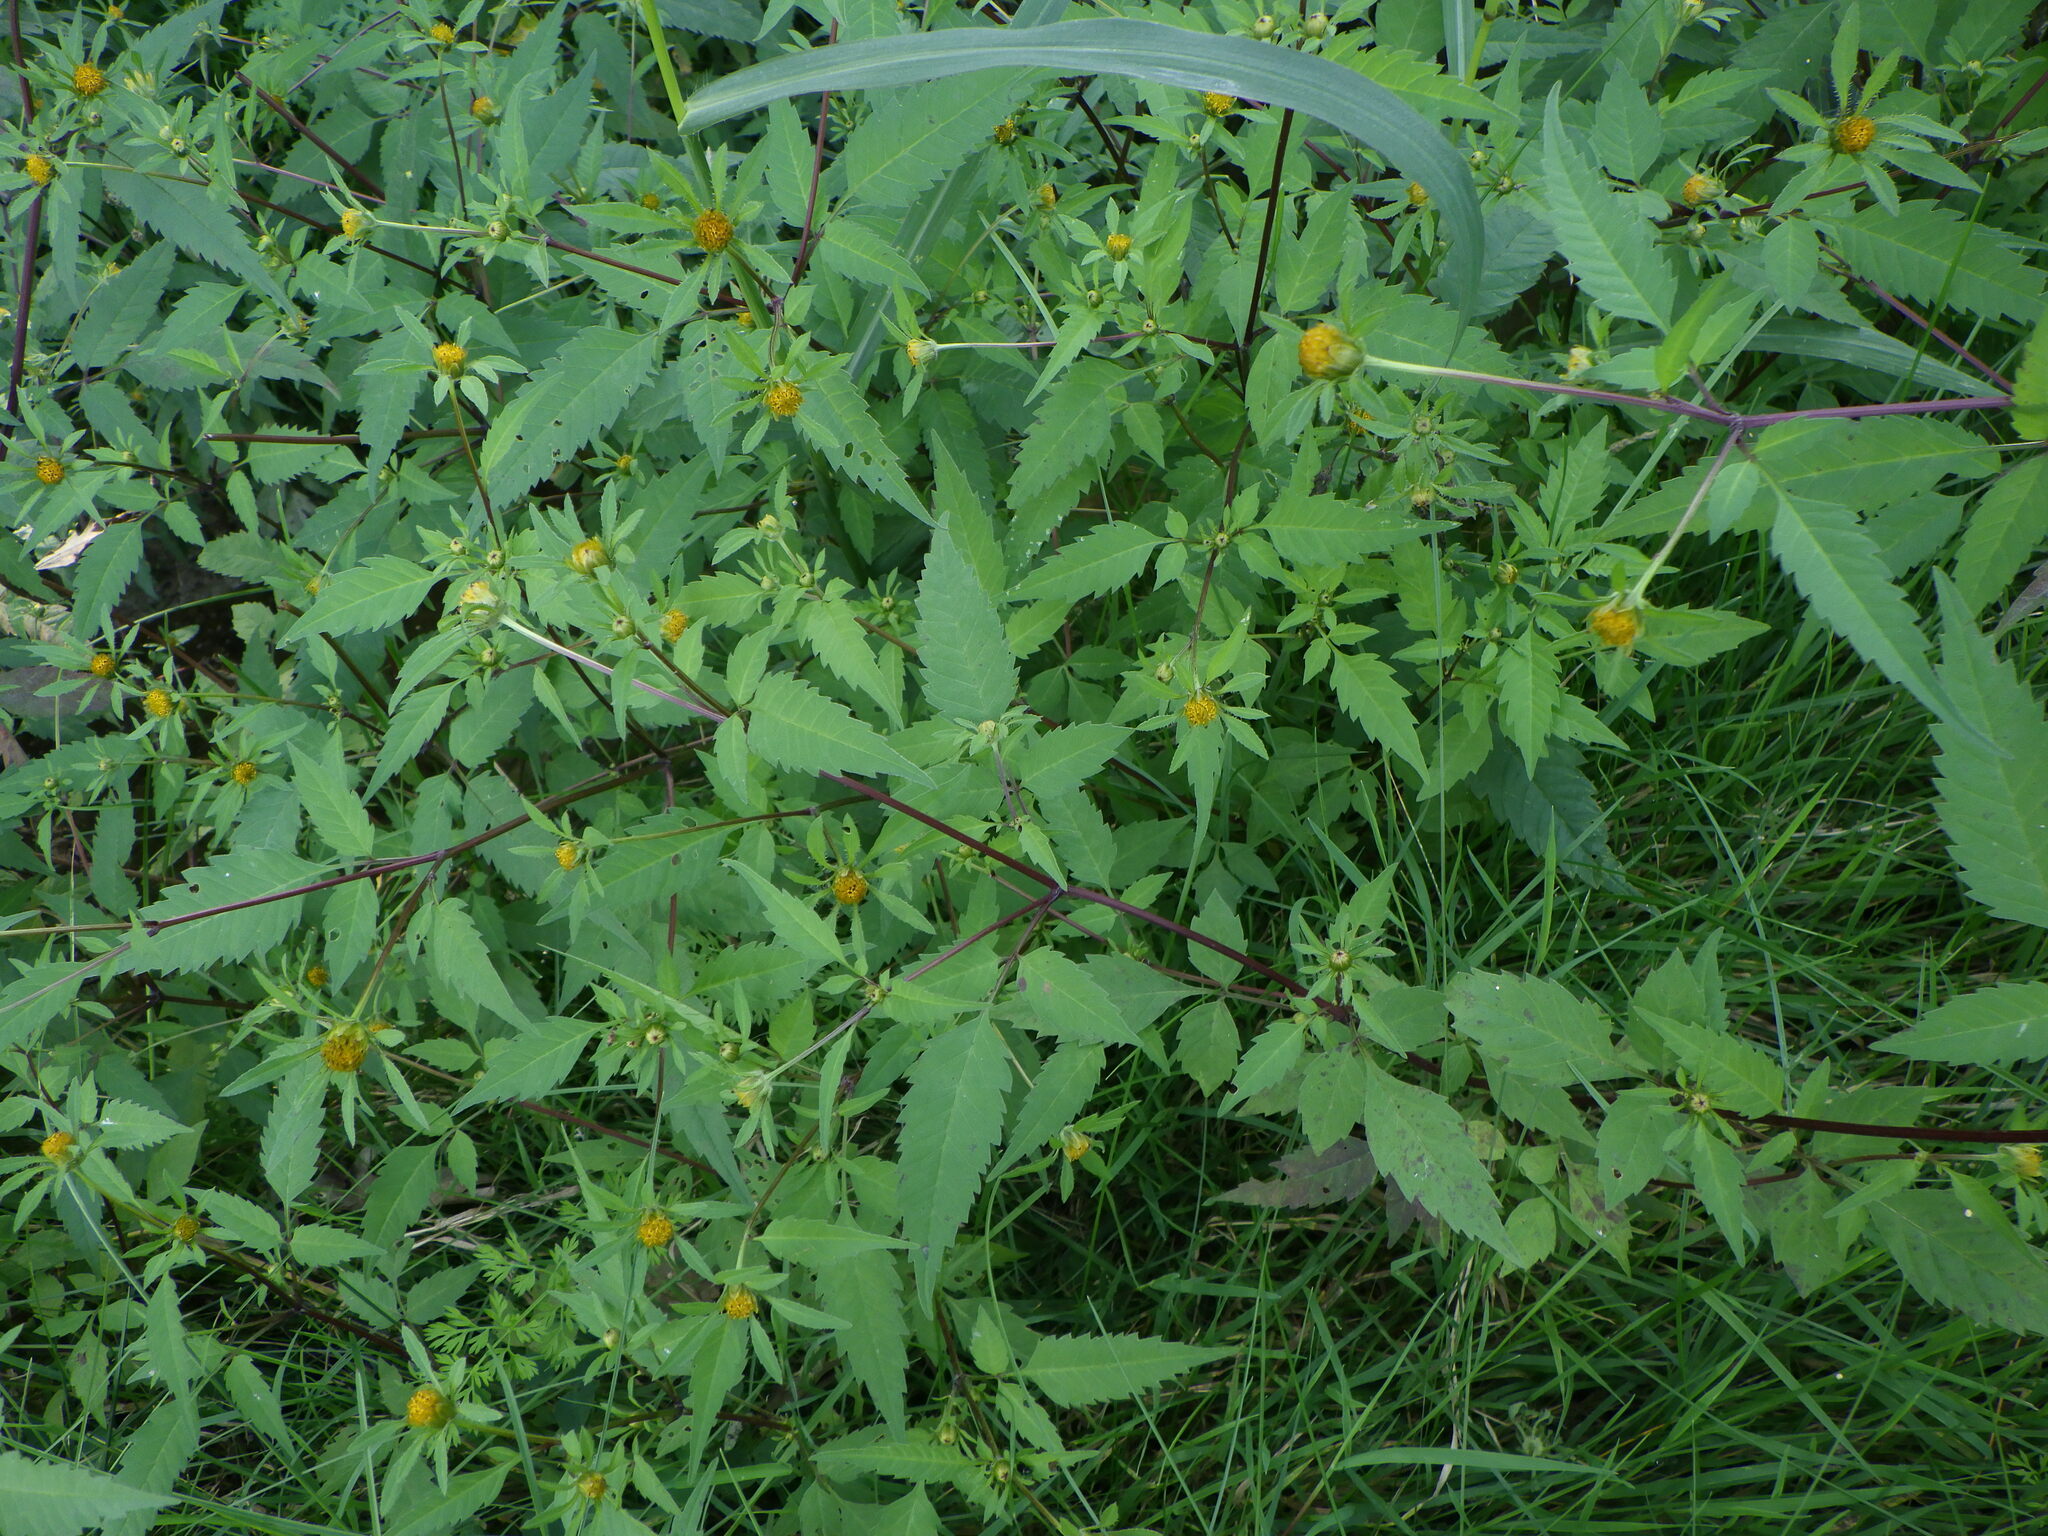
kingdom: Plantae
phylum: Tracheophyta
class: Magnoliopsida
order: Asterales
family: Asteraceae
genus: Bidens
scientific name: Bidens frondosa
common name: Beggarticks
